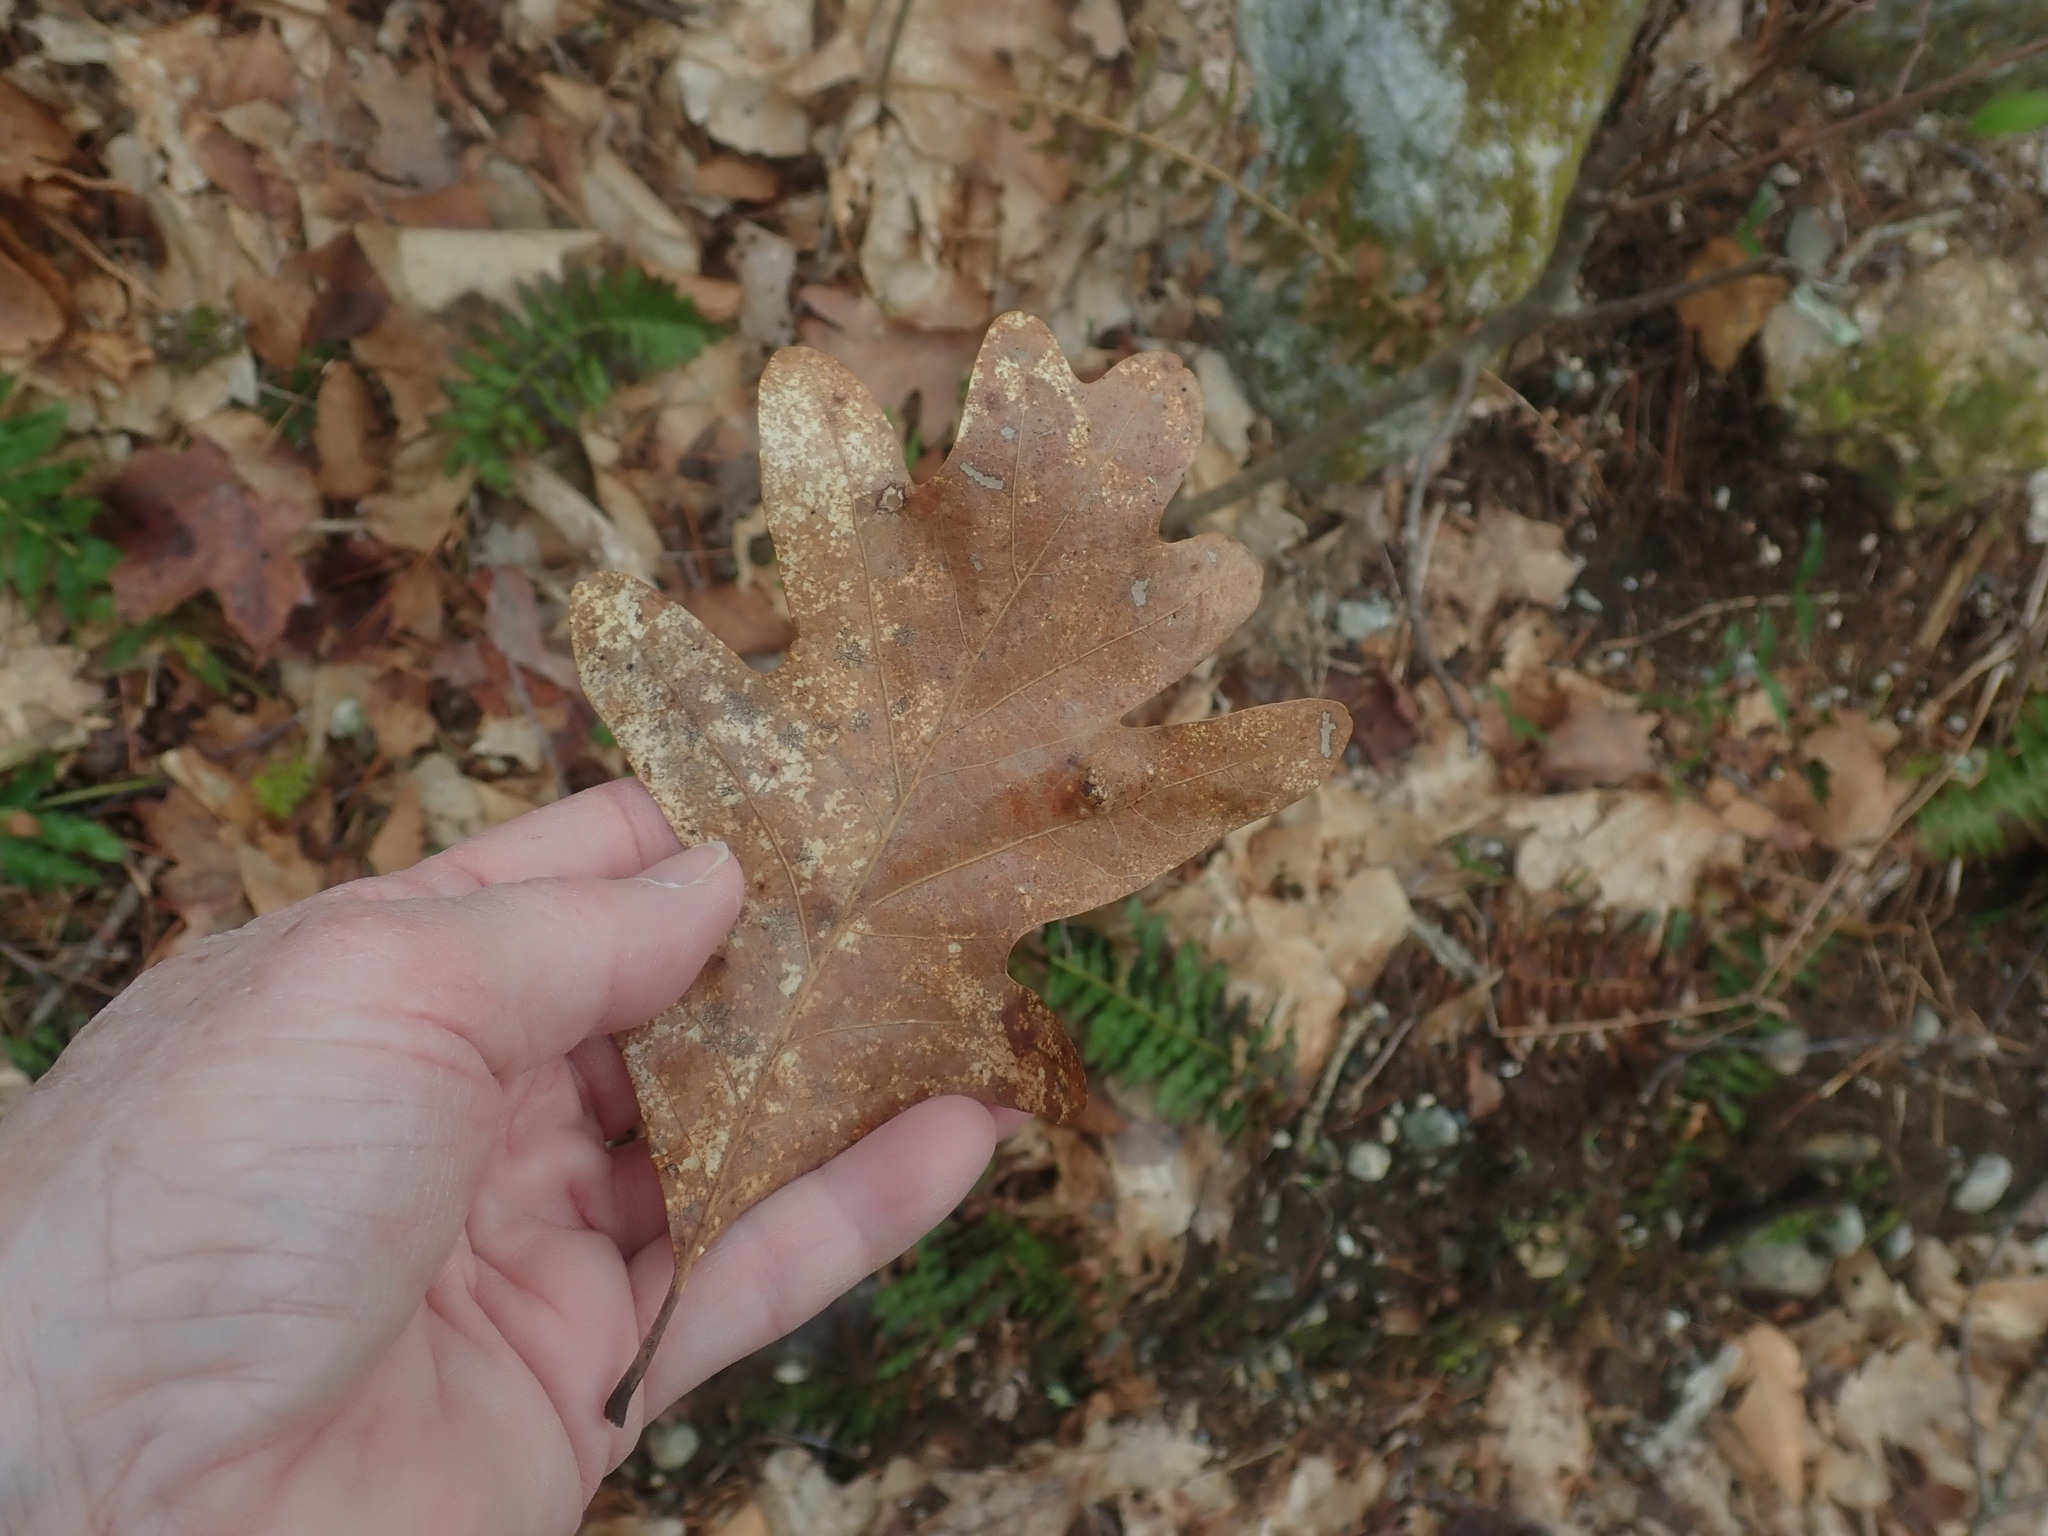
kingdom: Plantae
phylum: Tracheophyta
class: Magnoliopsida
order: Fagales
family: Fagaceae
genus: Quercus
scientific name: Quercus alba
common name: White oak
